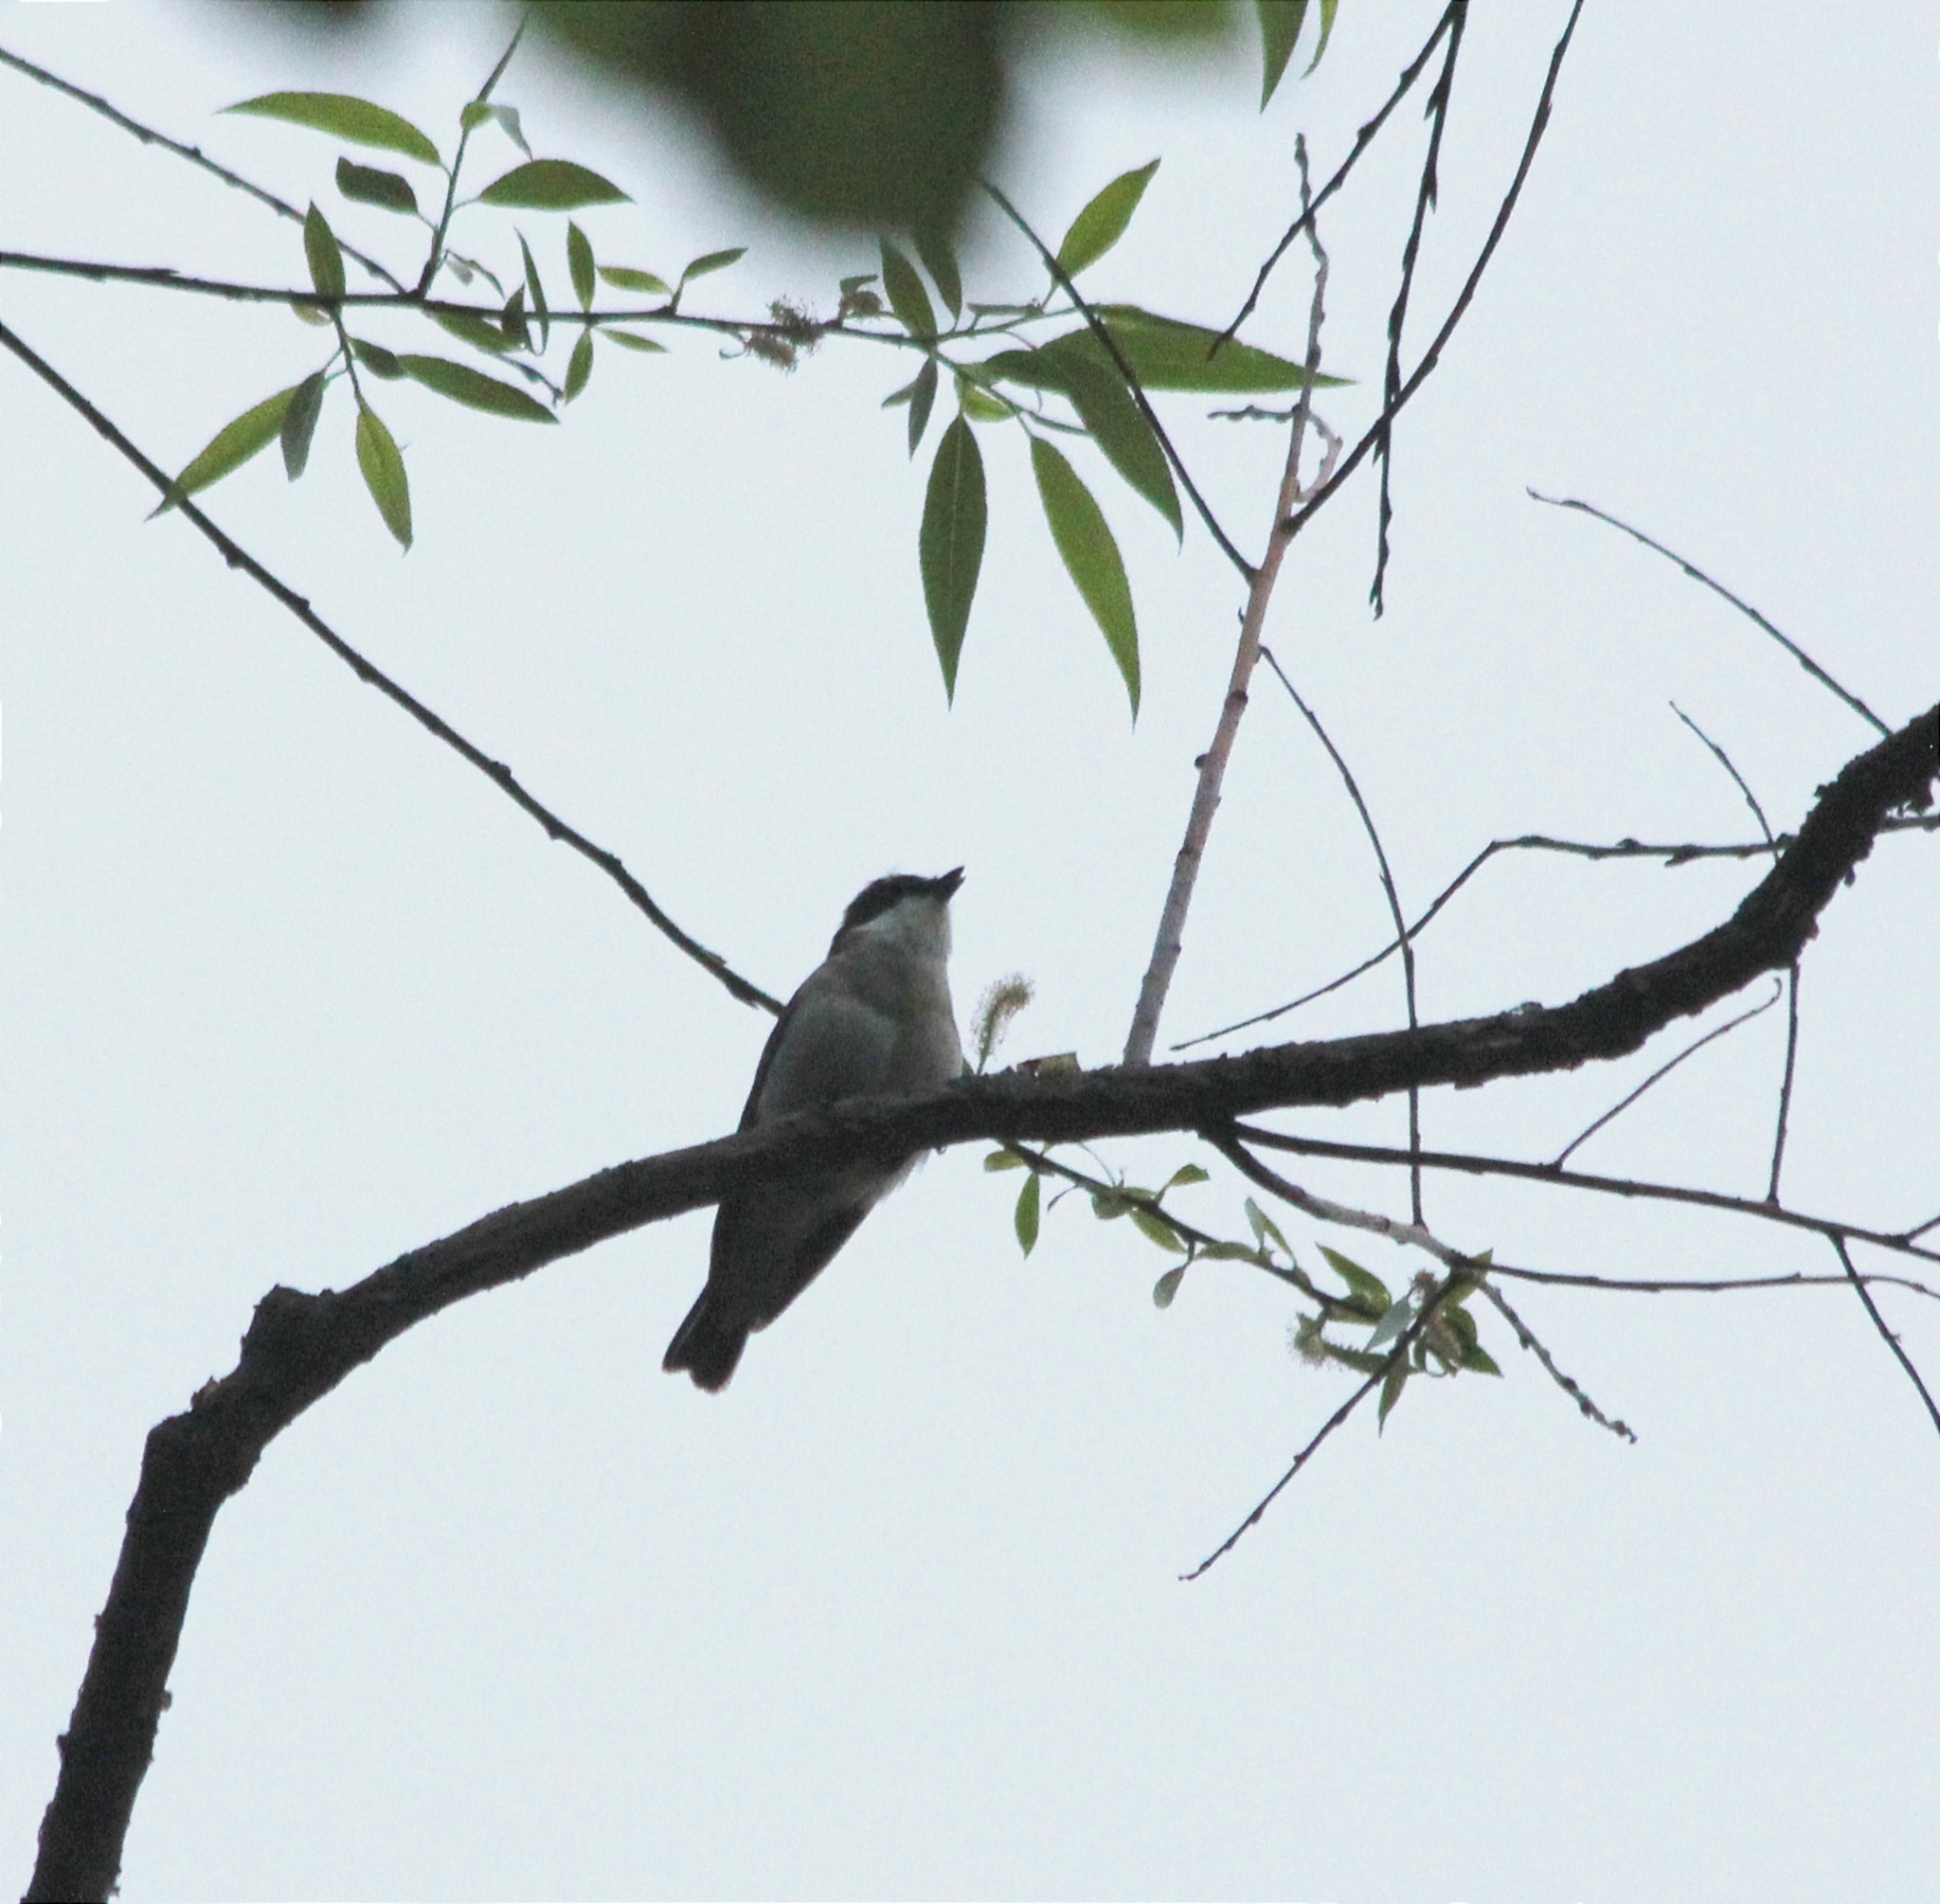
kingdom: Animalia
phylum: Chordata
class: Aves
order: Passeriformes
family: Muscicapidae
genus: Ficedula
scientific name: Ficedula hypoleuca
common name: European pied flycatcher
